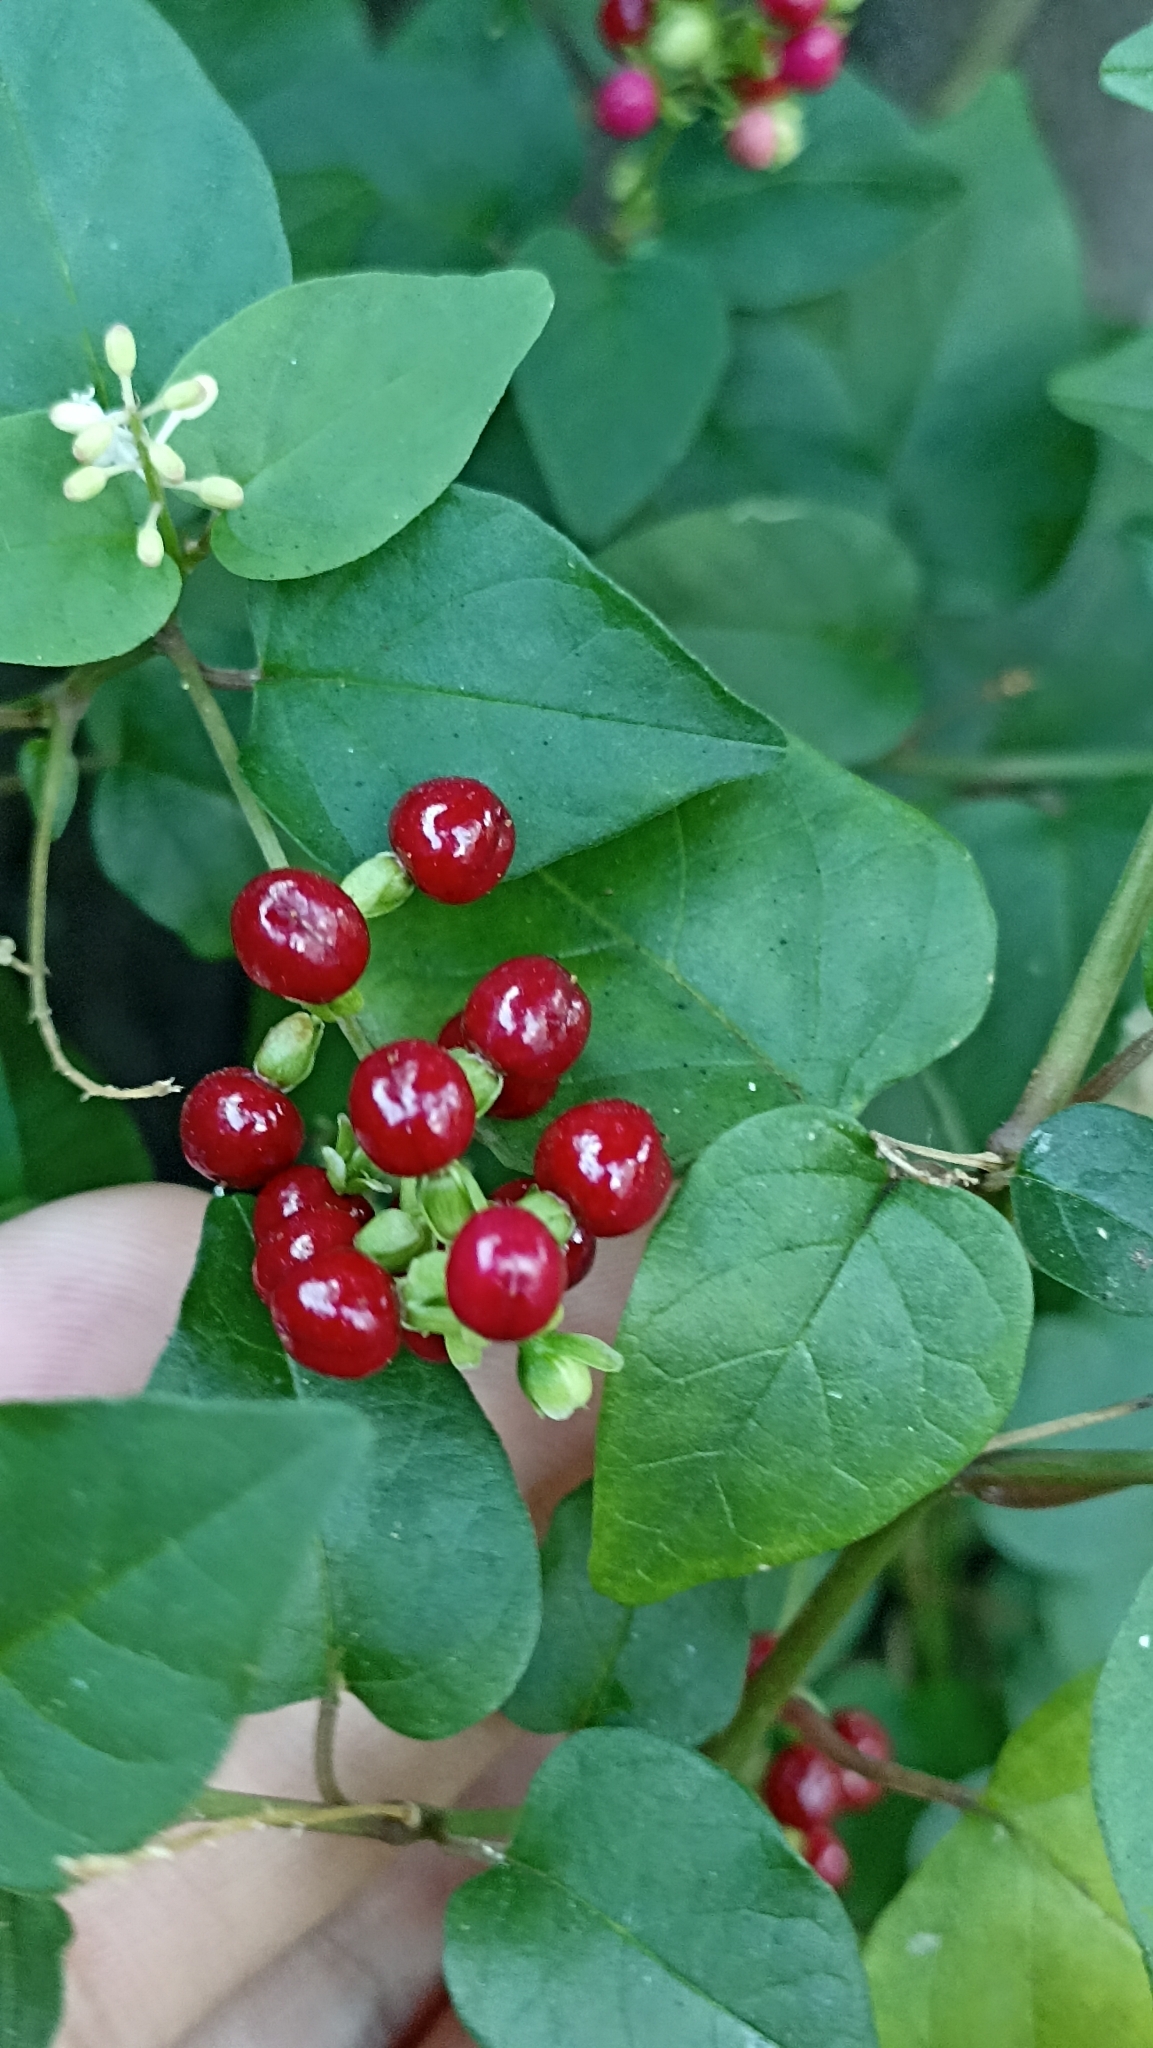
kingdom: Plantae
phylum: Tracheophyta
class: Magnoliopsida
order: Caryophyllales
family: Phytolaccaceae
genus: Rivina
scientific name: Rivina humilis
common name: Rougeplant
